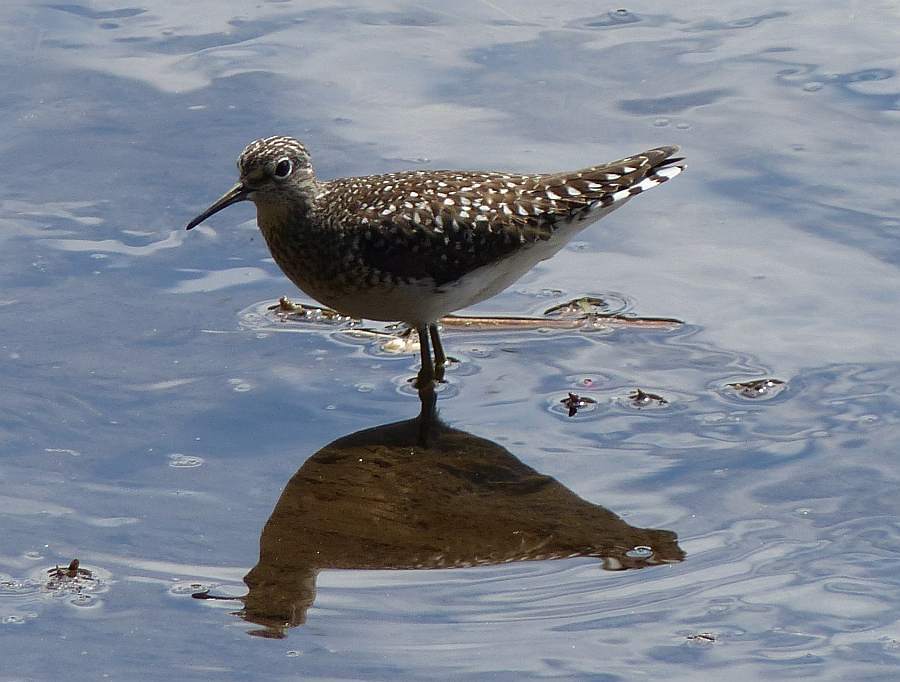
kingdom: Animalia
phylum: Chordata
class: Aves
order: Charadriiformes
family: Scolopacidae
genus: Tringa
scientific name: Tringa solitaria
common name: Solitary sandpiper
